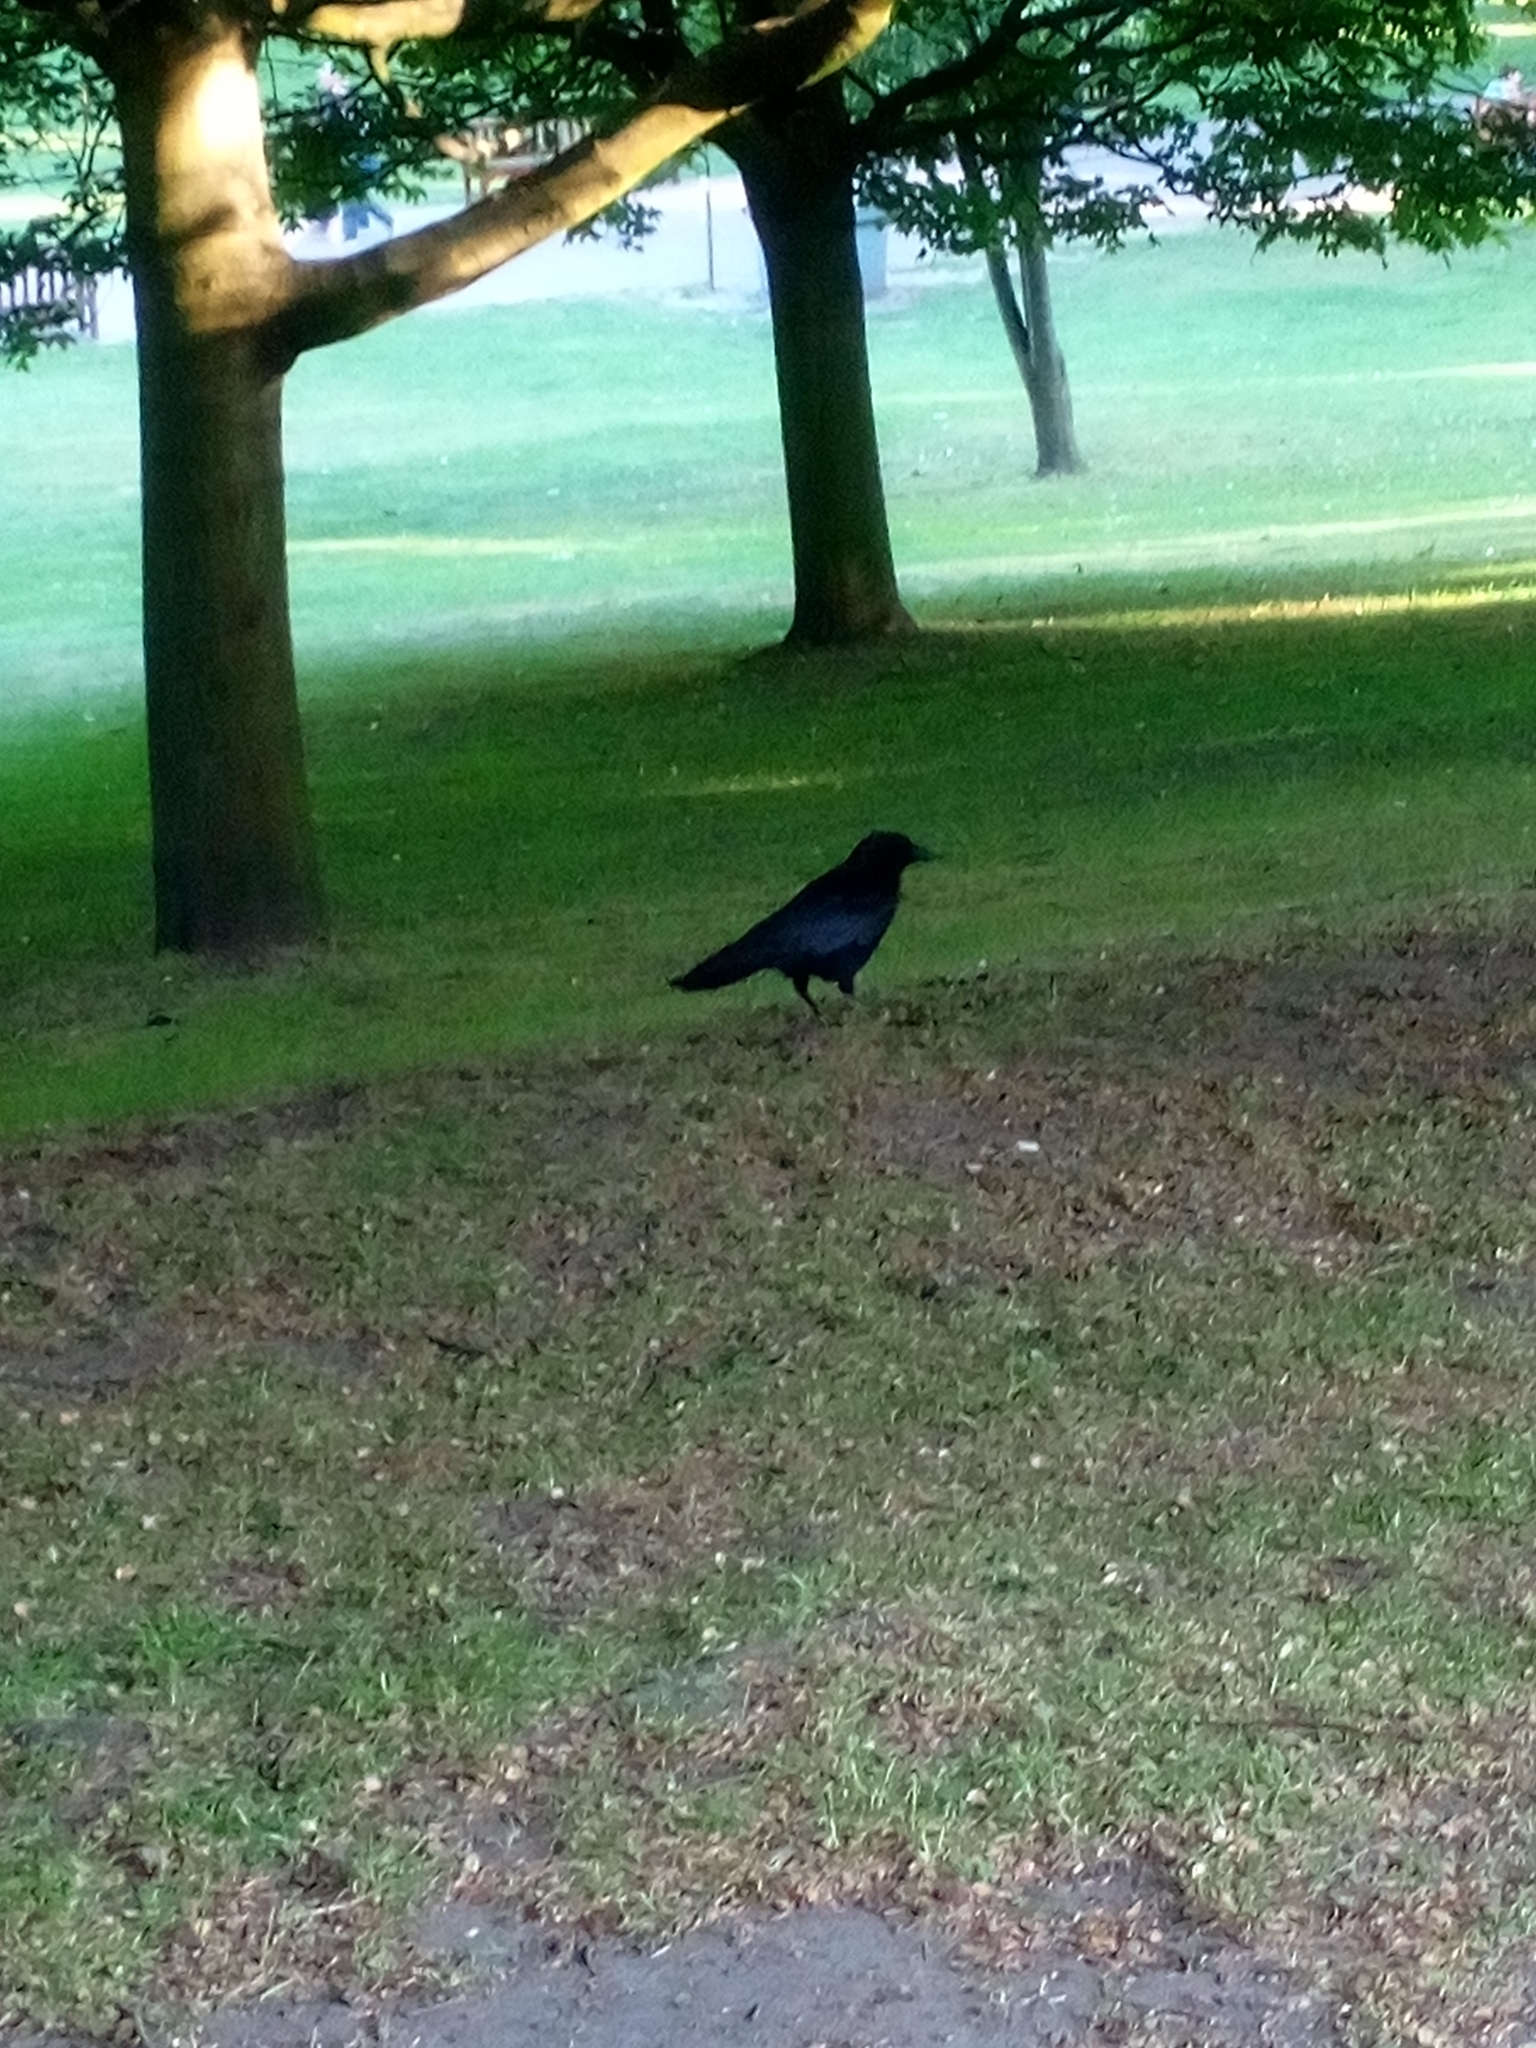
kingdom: Animalia
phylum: Chordata
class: Aves
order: Passeriformes
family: Corvidae
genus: Corvus
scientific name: Corvus corone
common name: Carrion crow
